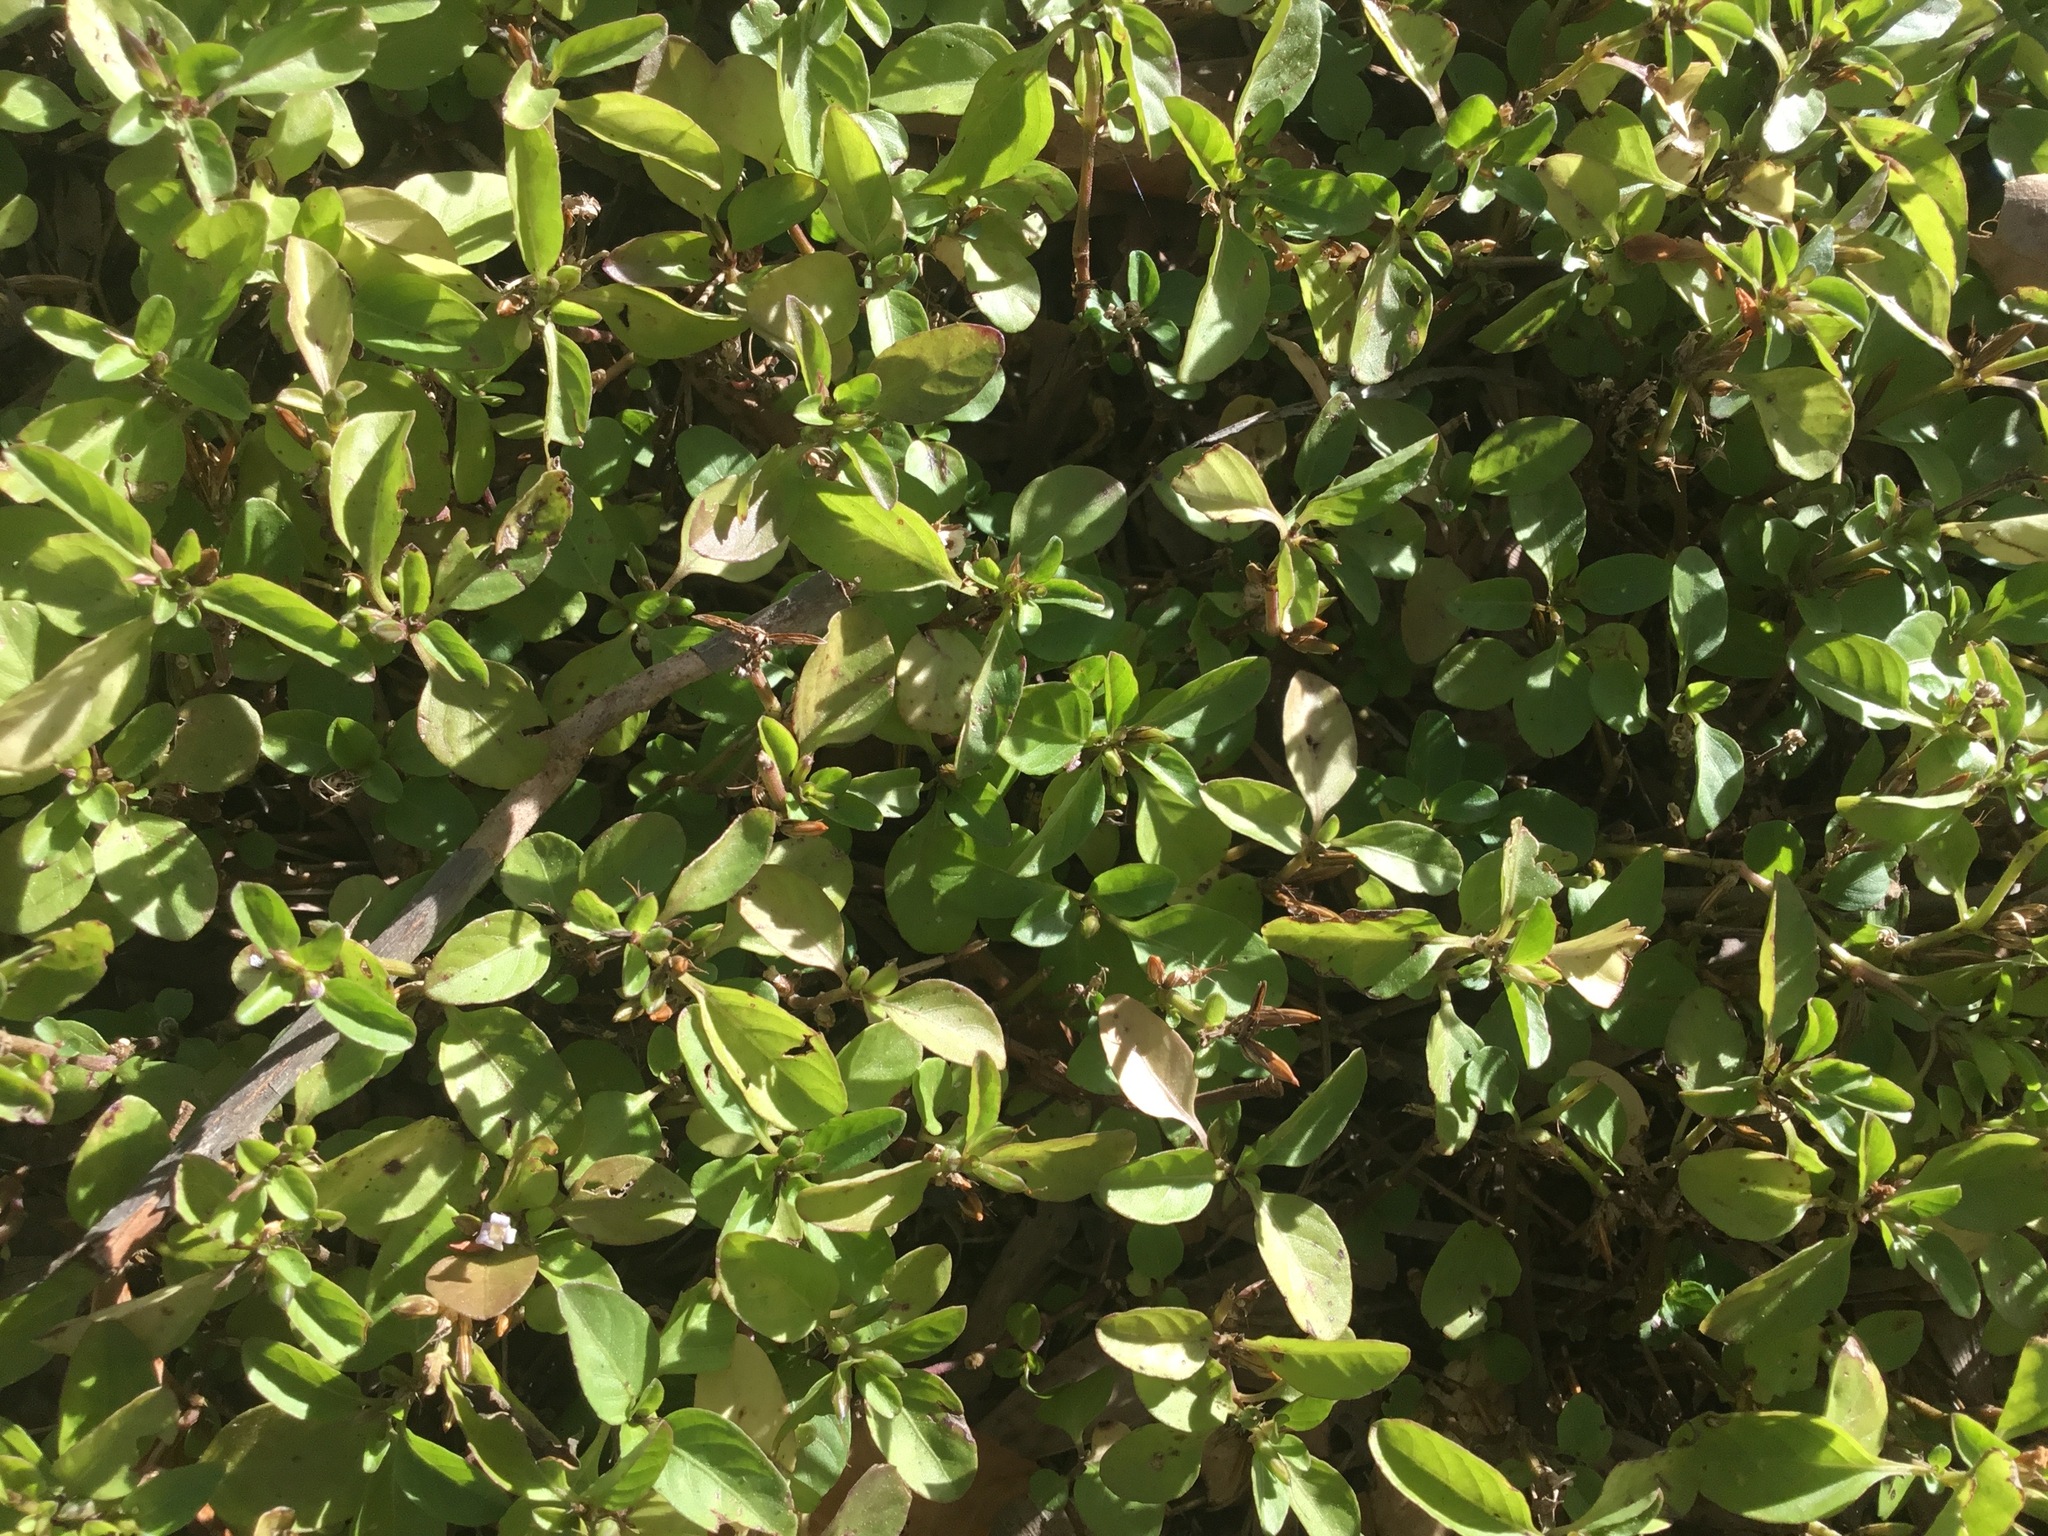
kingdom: Plantae
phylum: Tracheophyta
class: Magnoliopsida
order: Lamiales
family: Acanthaceae
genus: Hygrophila
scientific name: Hygrophila erecta
